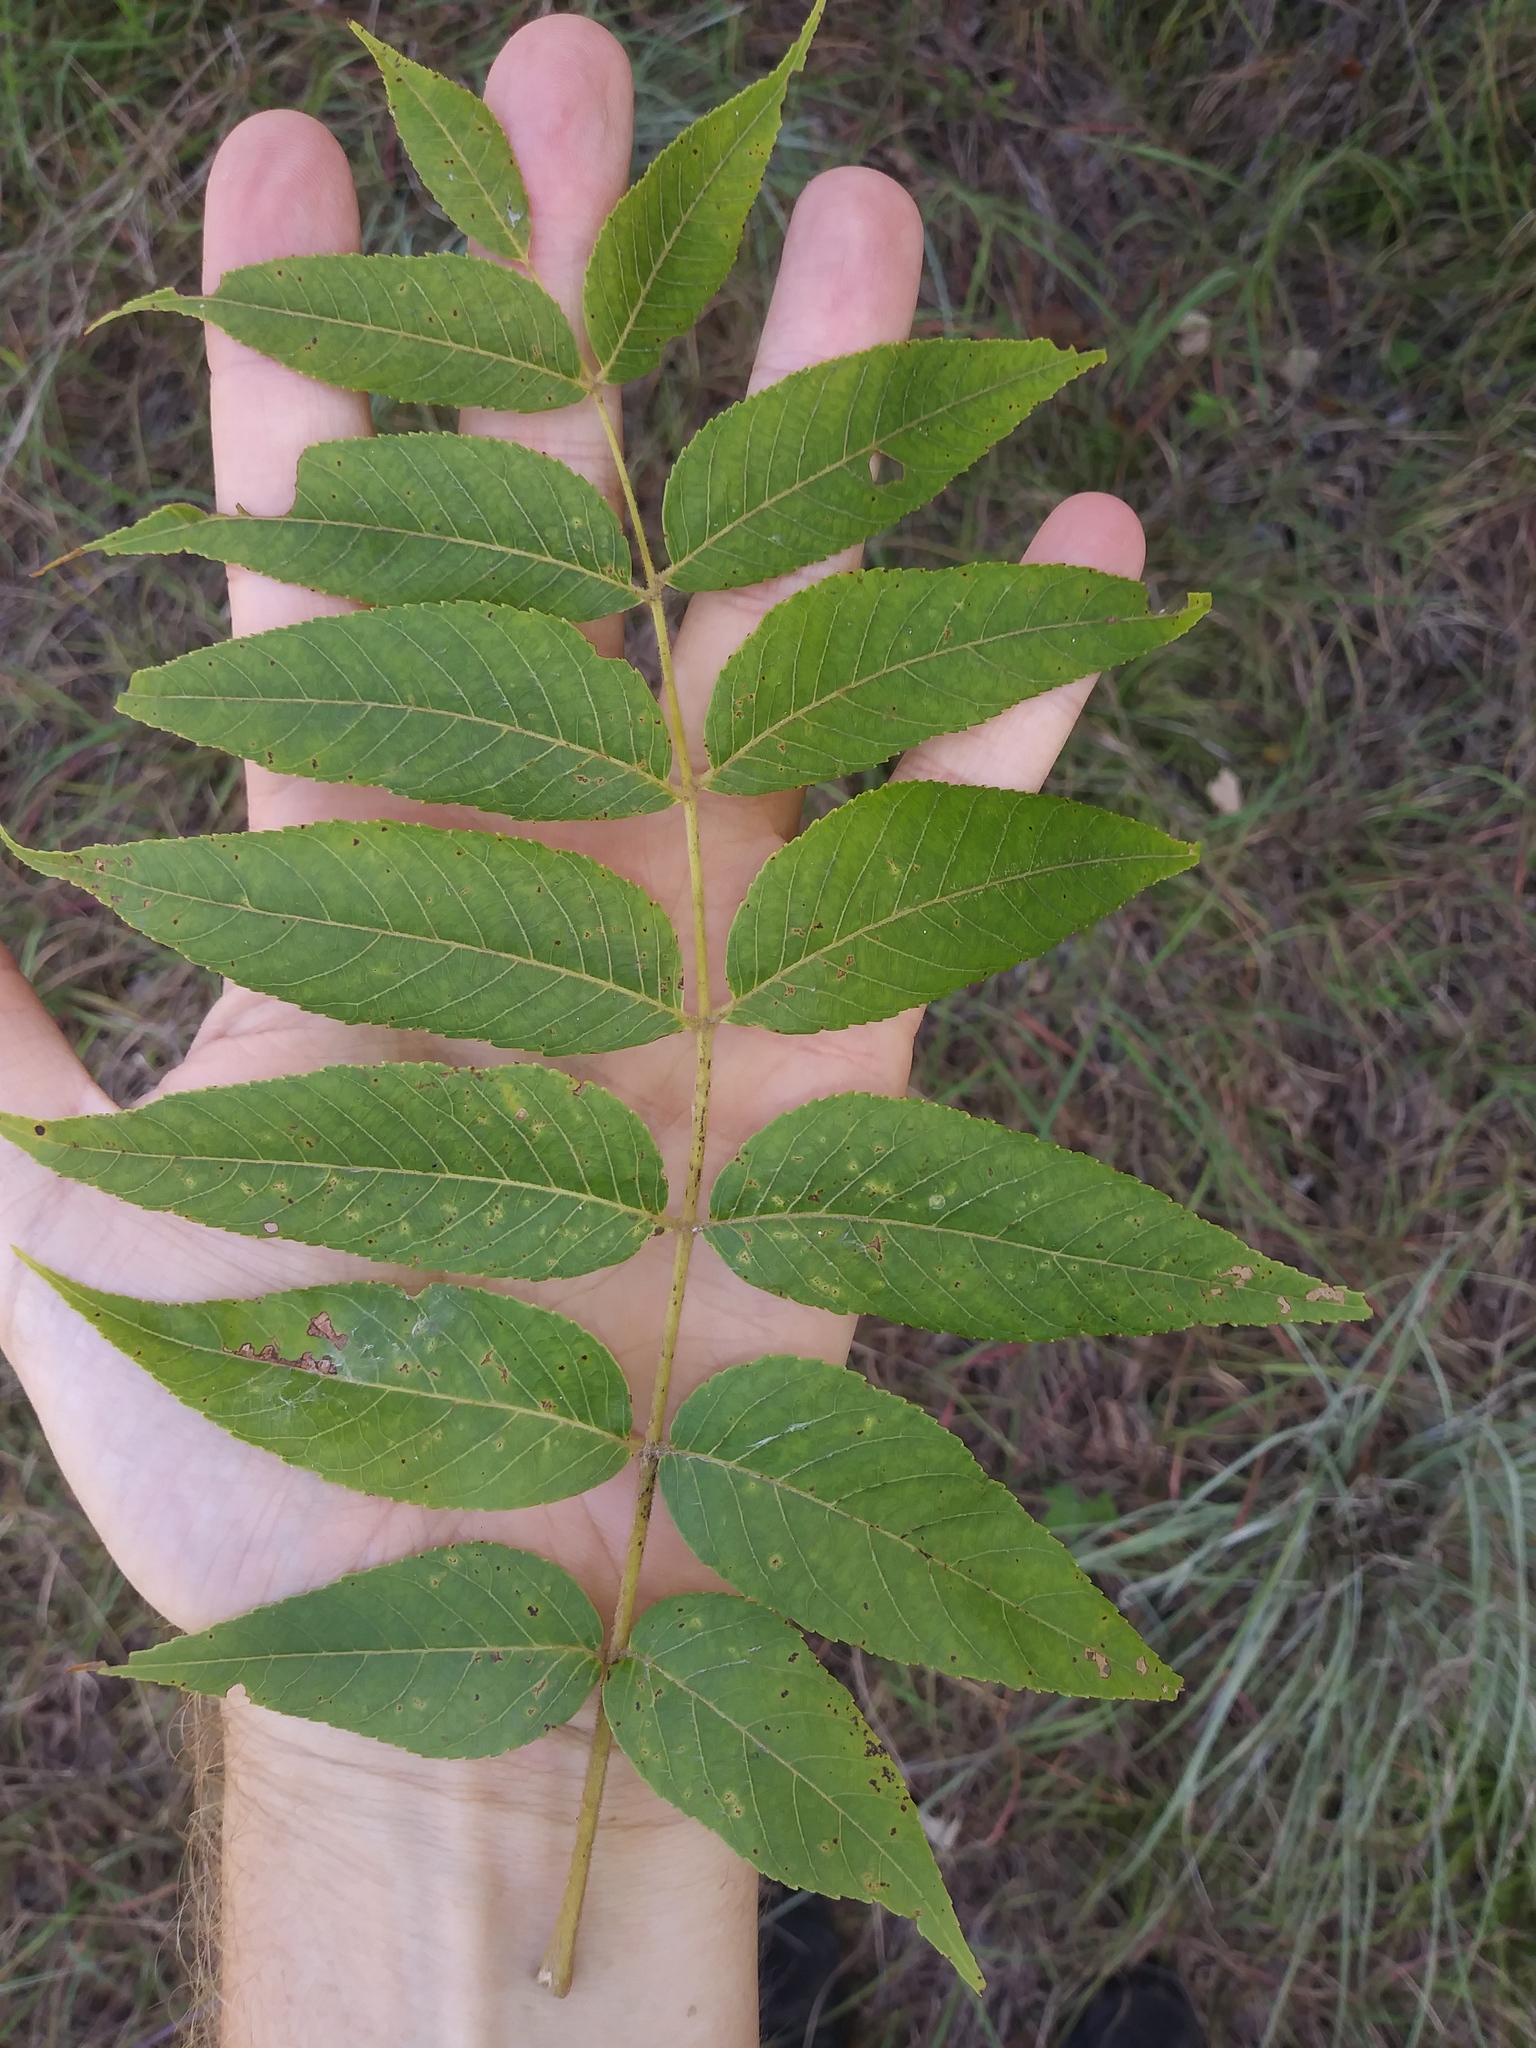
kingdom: Plantae
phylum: Tracheophyta
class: Magnoliopsida
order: Fagales
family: Juglandaceae
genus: Juglans
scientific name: Juglans nigra
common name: Black walnut
